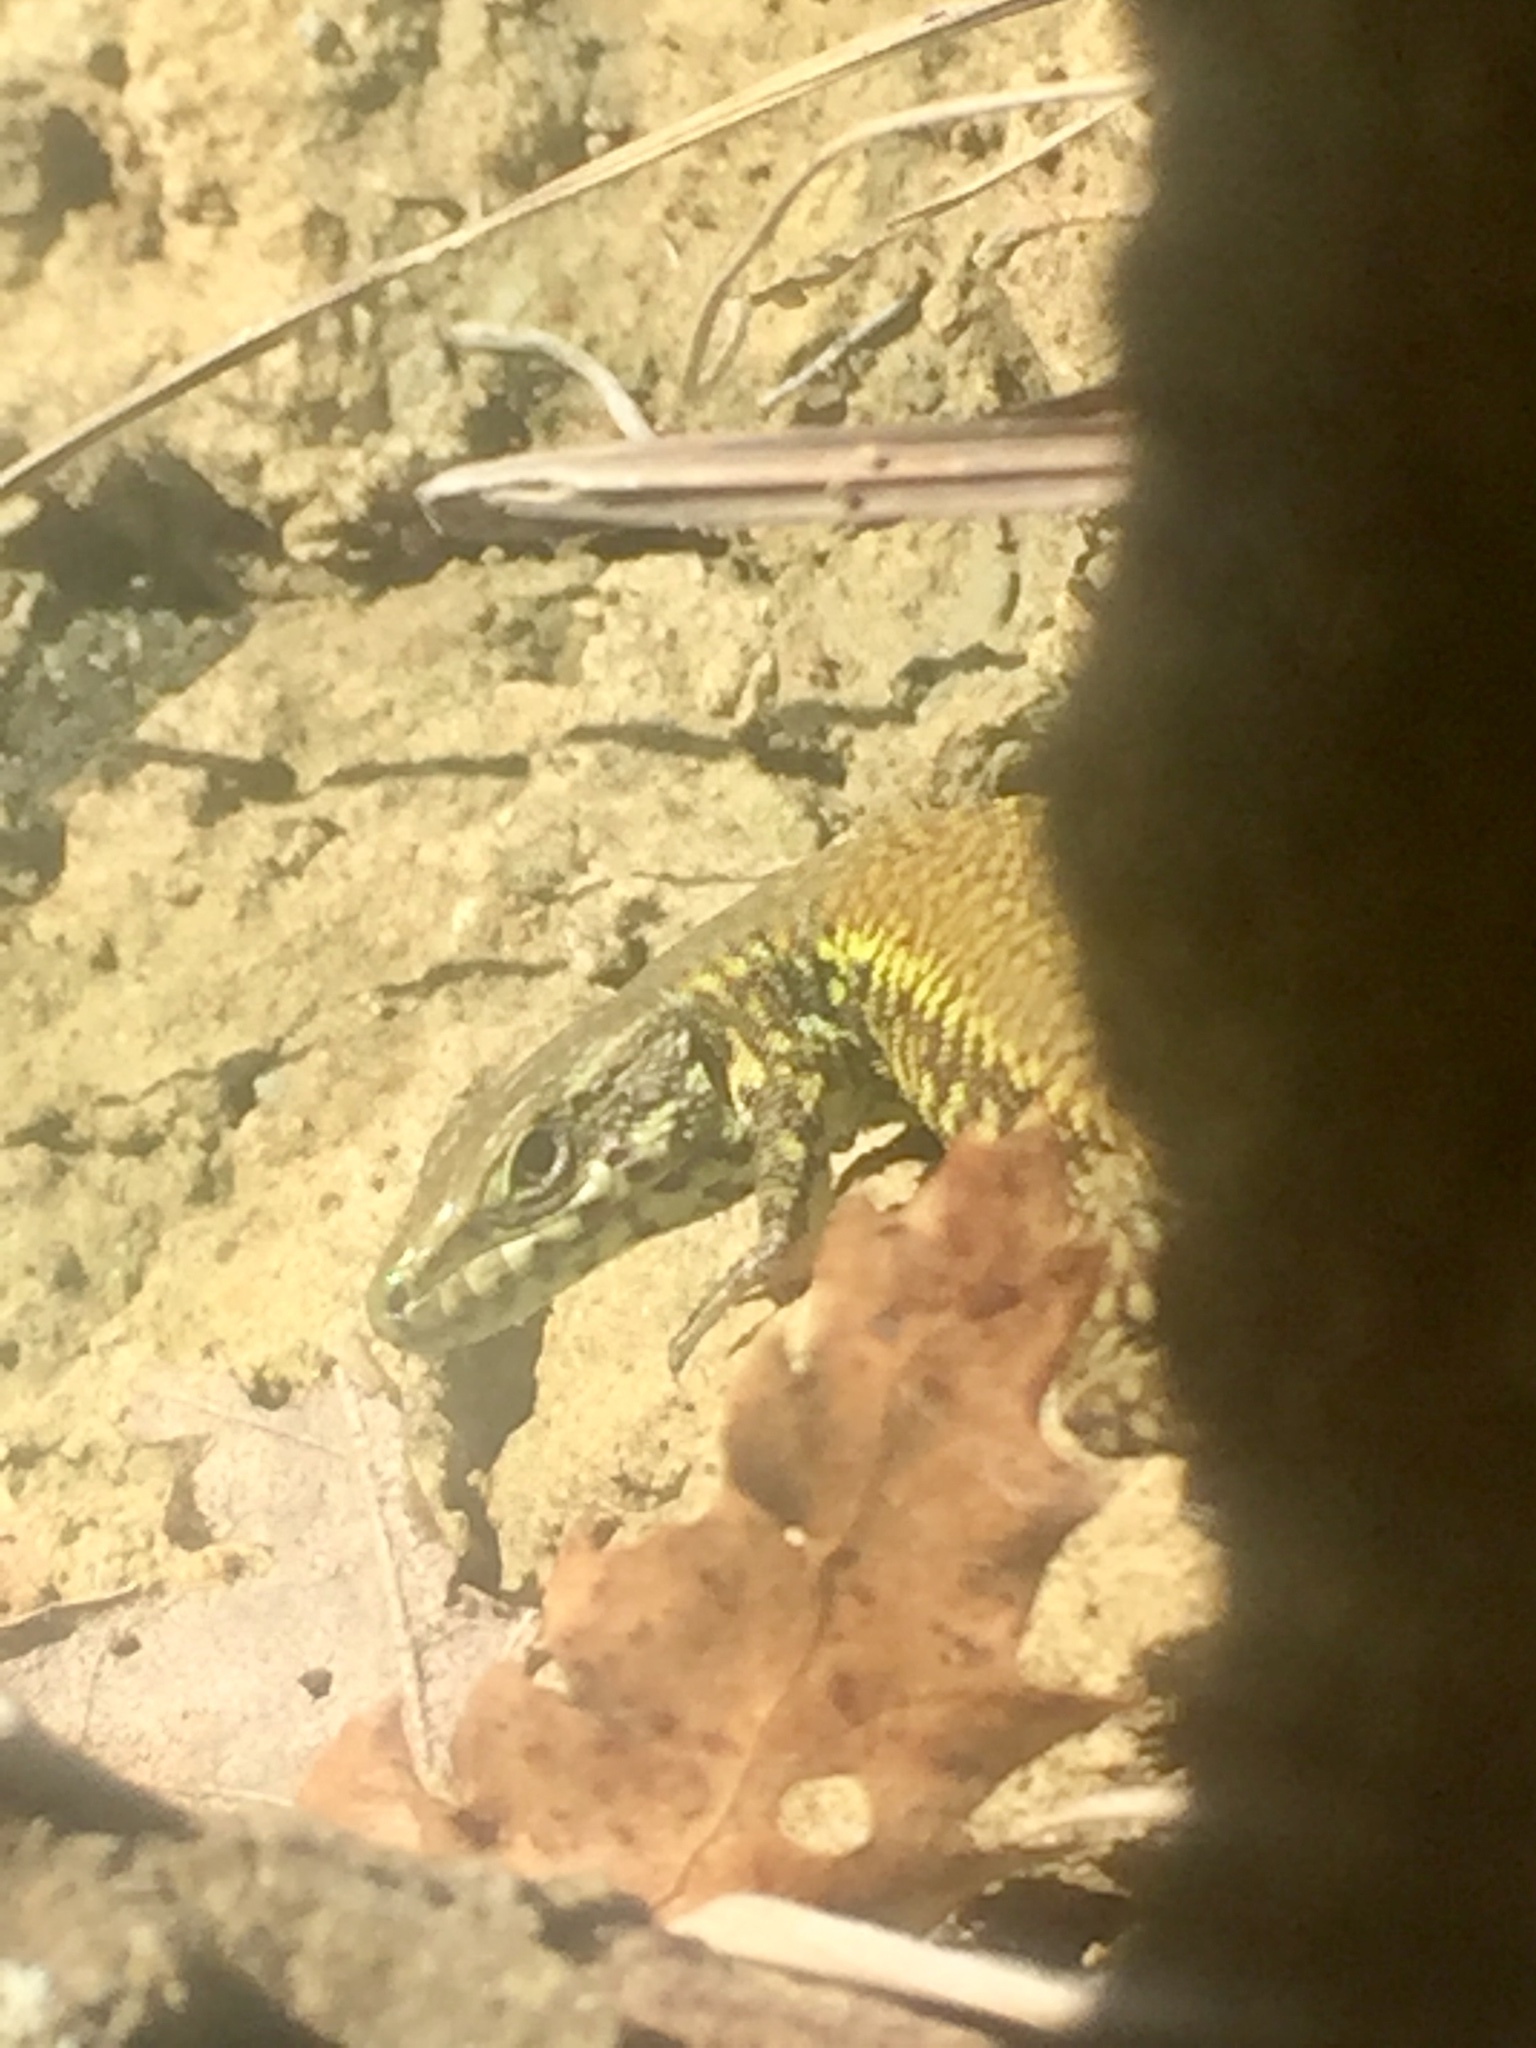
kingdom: Animalia
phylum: Chordata
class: Squamata
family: Lacertidae
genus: Podarcis
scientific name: Podarcis muralis
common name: Common wall lizard
